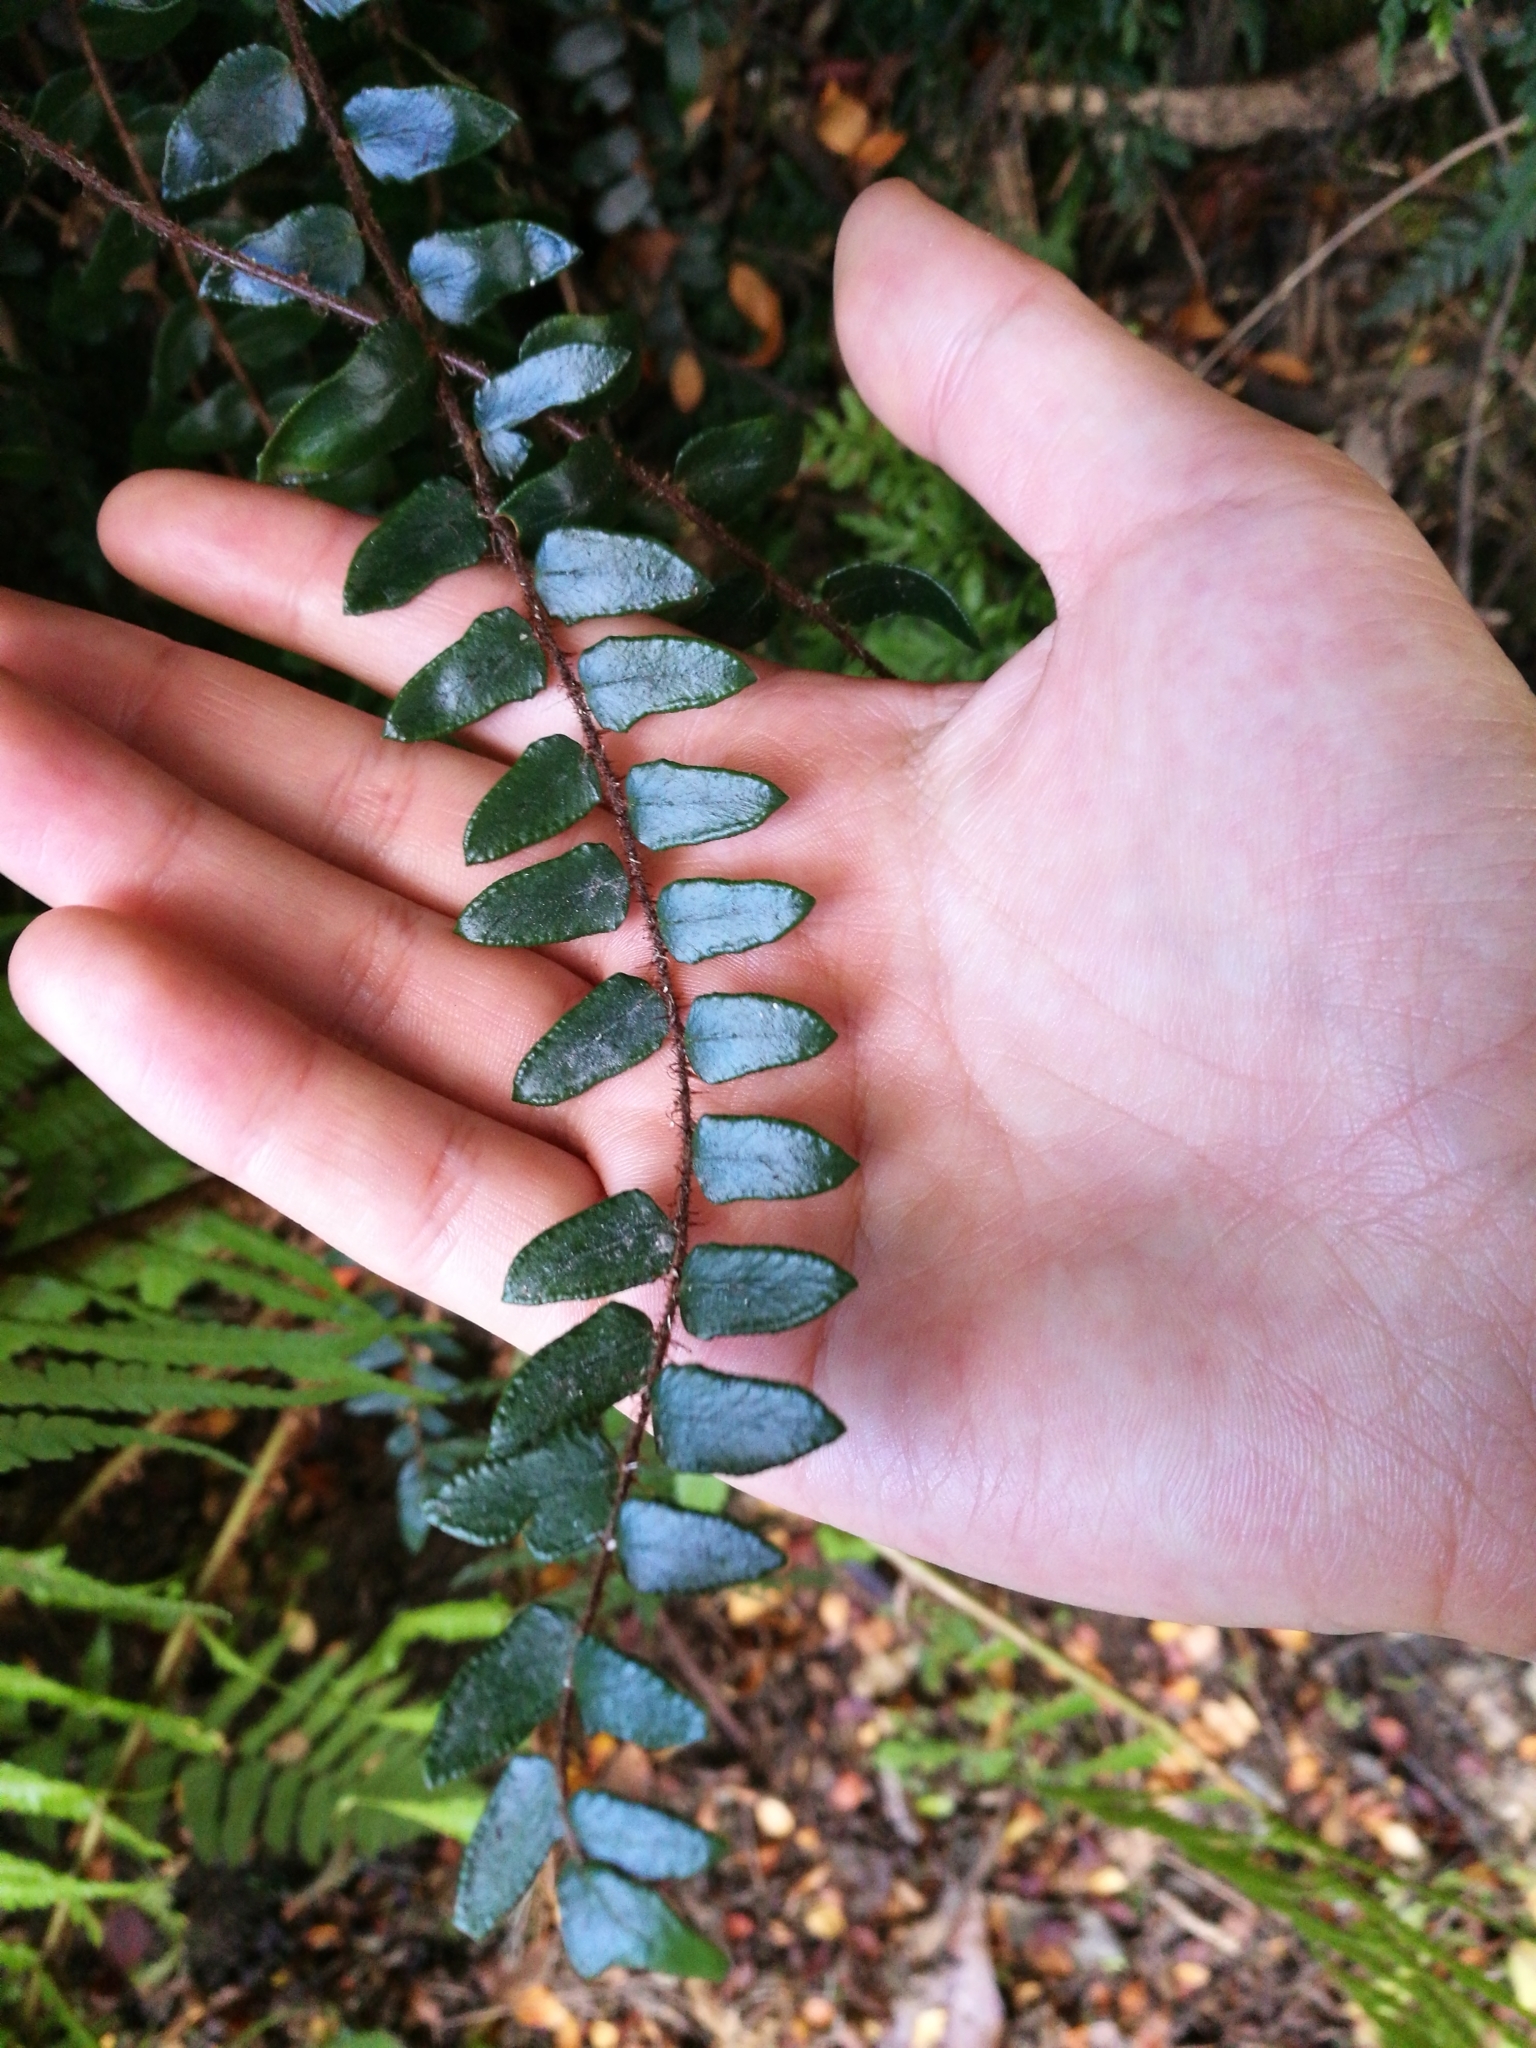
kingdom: Plantae
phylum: Tracheophyta
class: Polypodiopsida
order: Polypodiales
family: Pteridaceae
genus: Pellaea
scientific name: Pellaea rotundifolia
